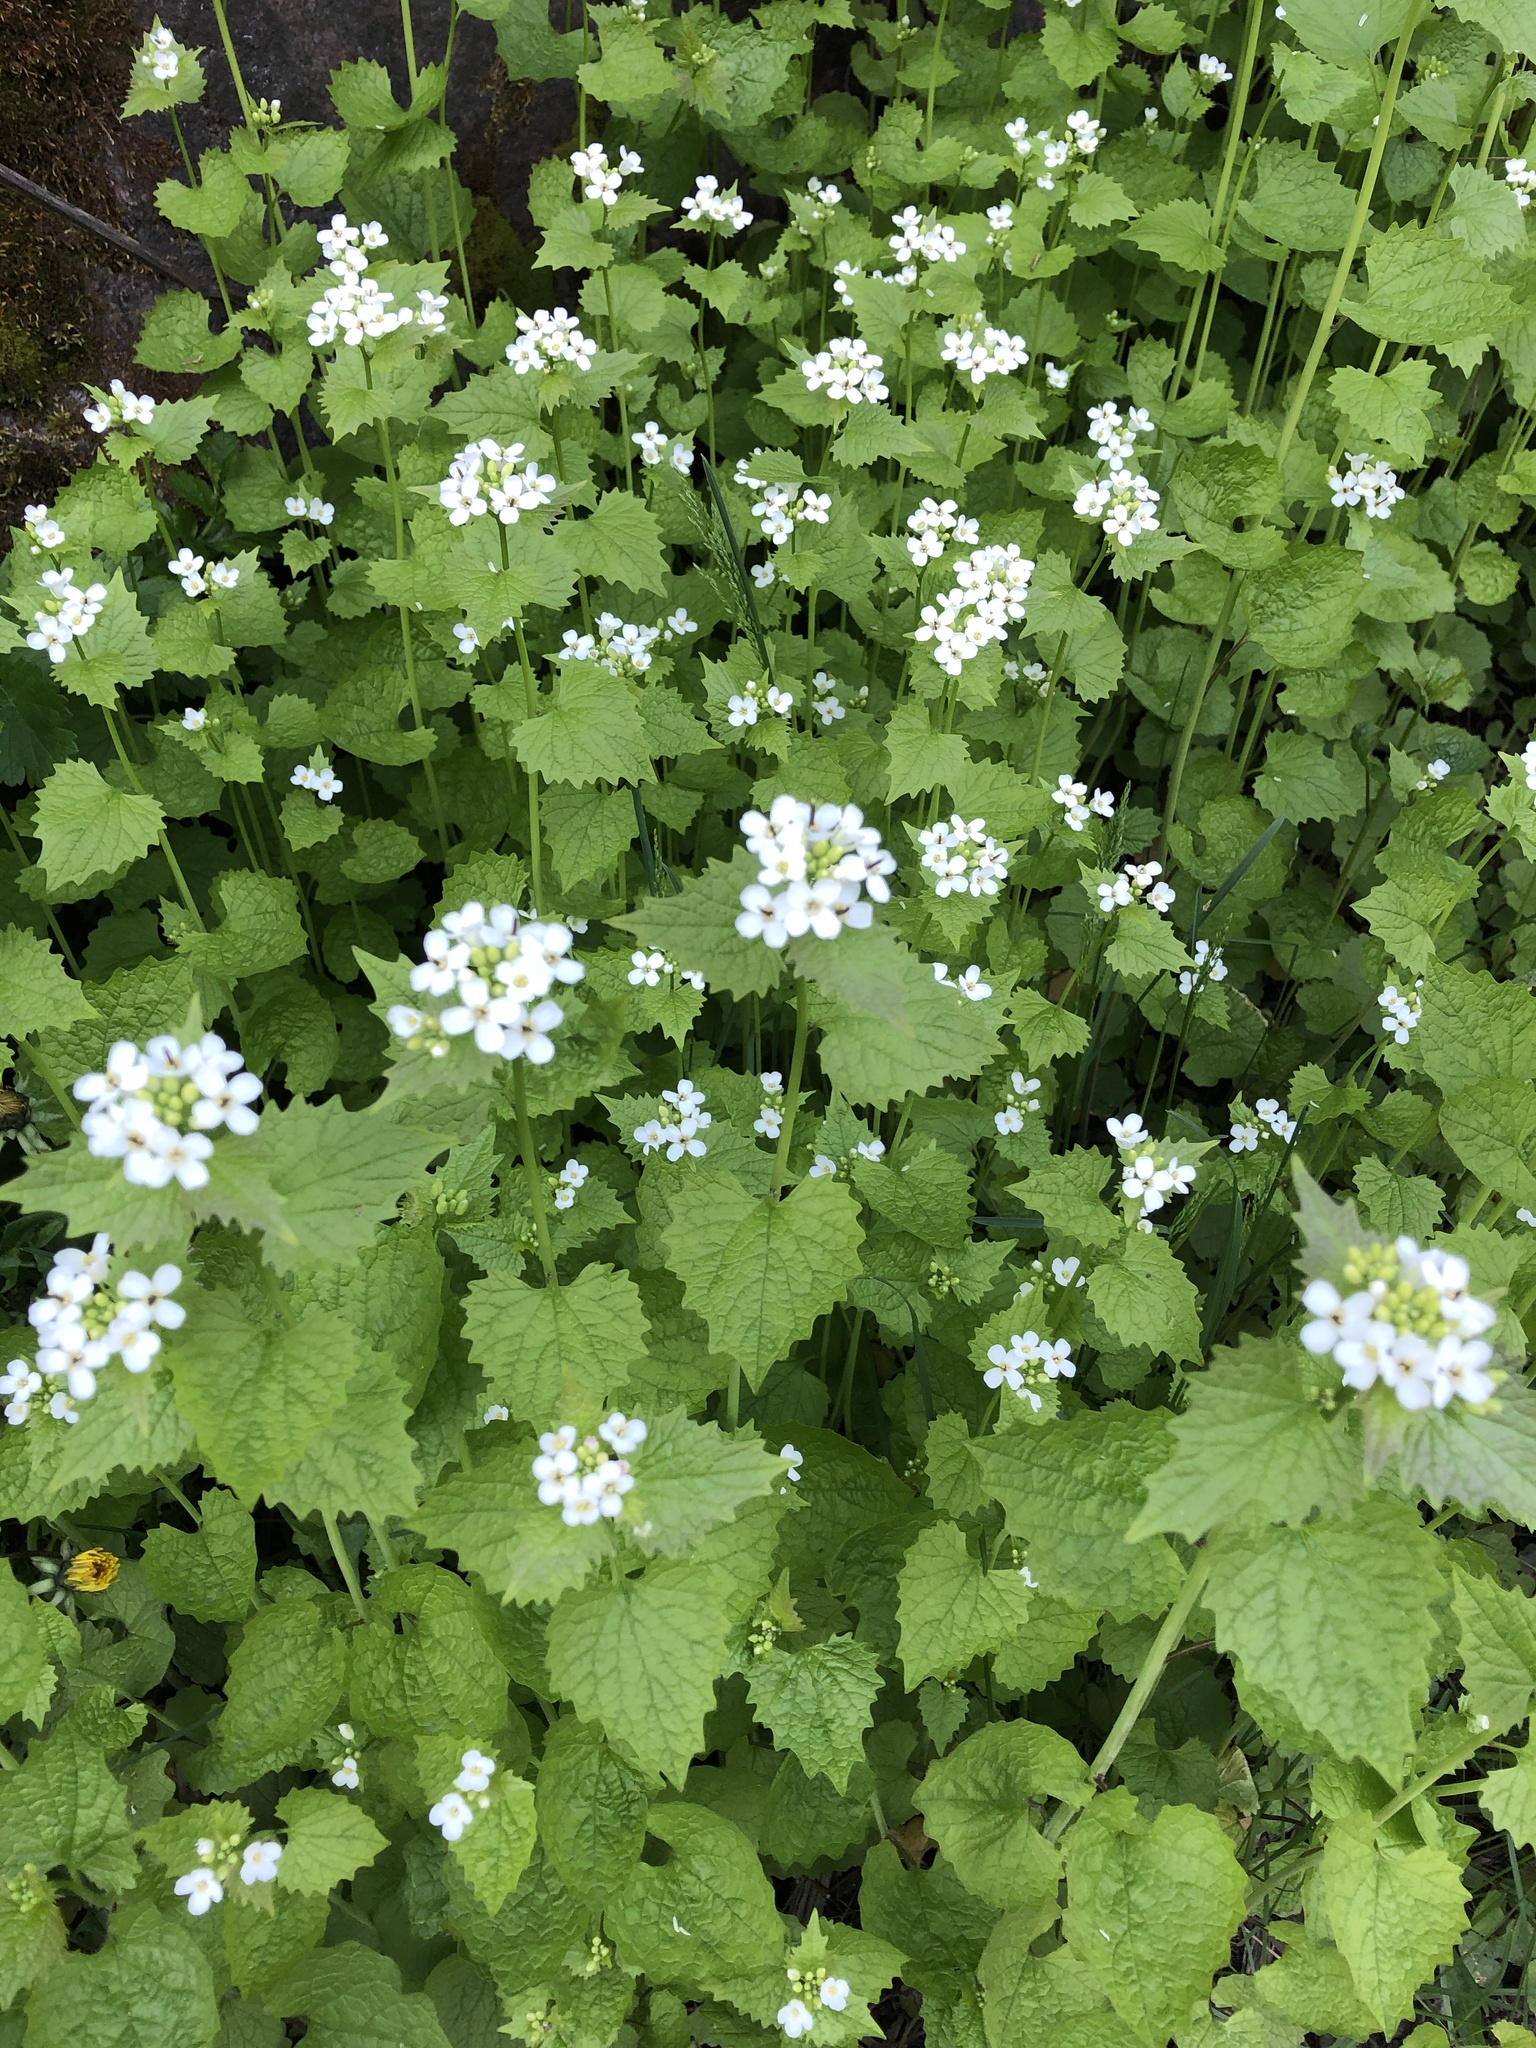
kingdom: Plantae
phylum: Tracheophyta
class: Magnoliopsida
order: Brassicales
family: Brassicaceae
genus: Alliaria
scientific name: Alliaria petiolata
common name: Garlic mustard
